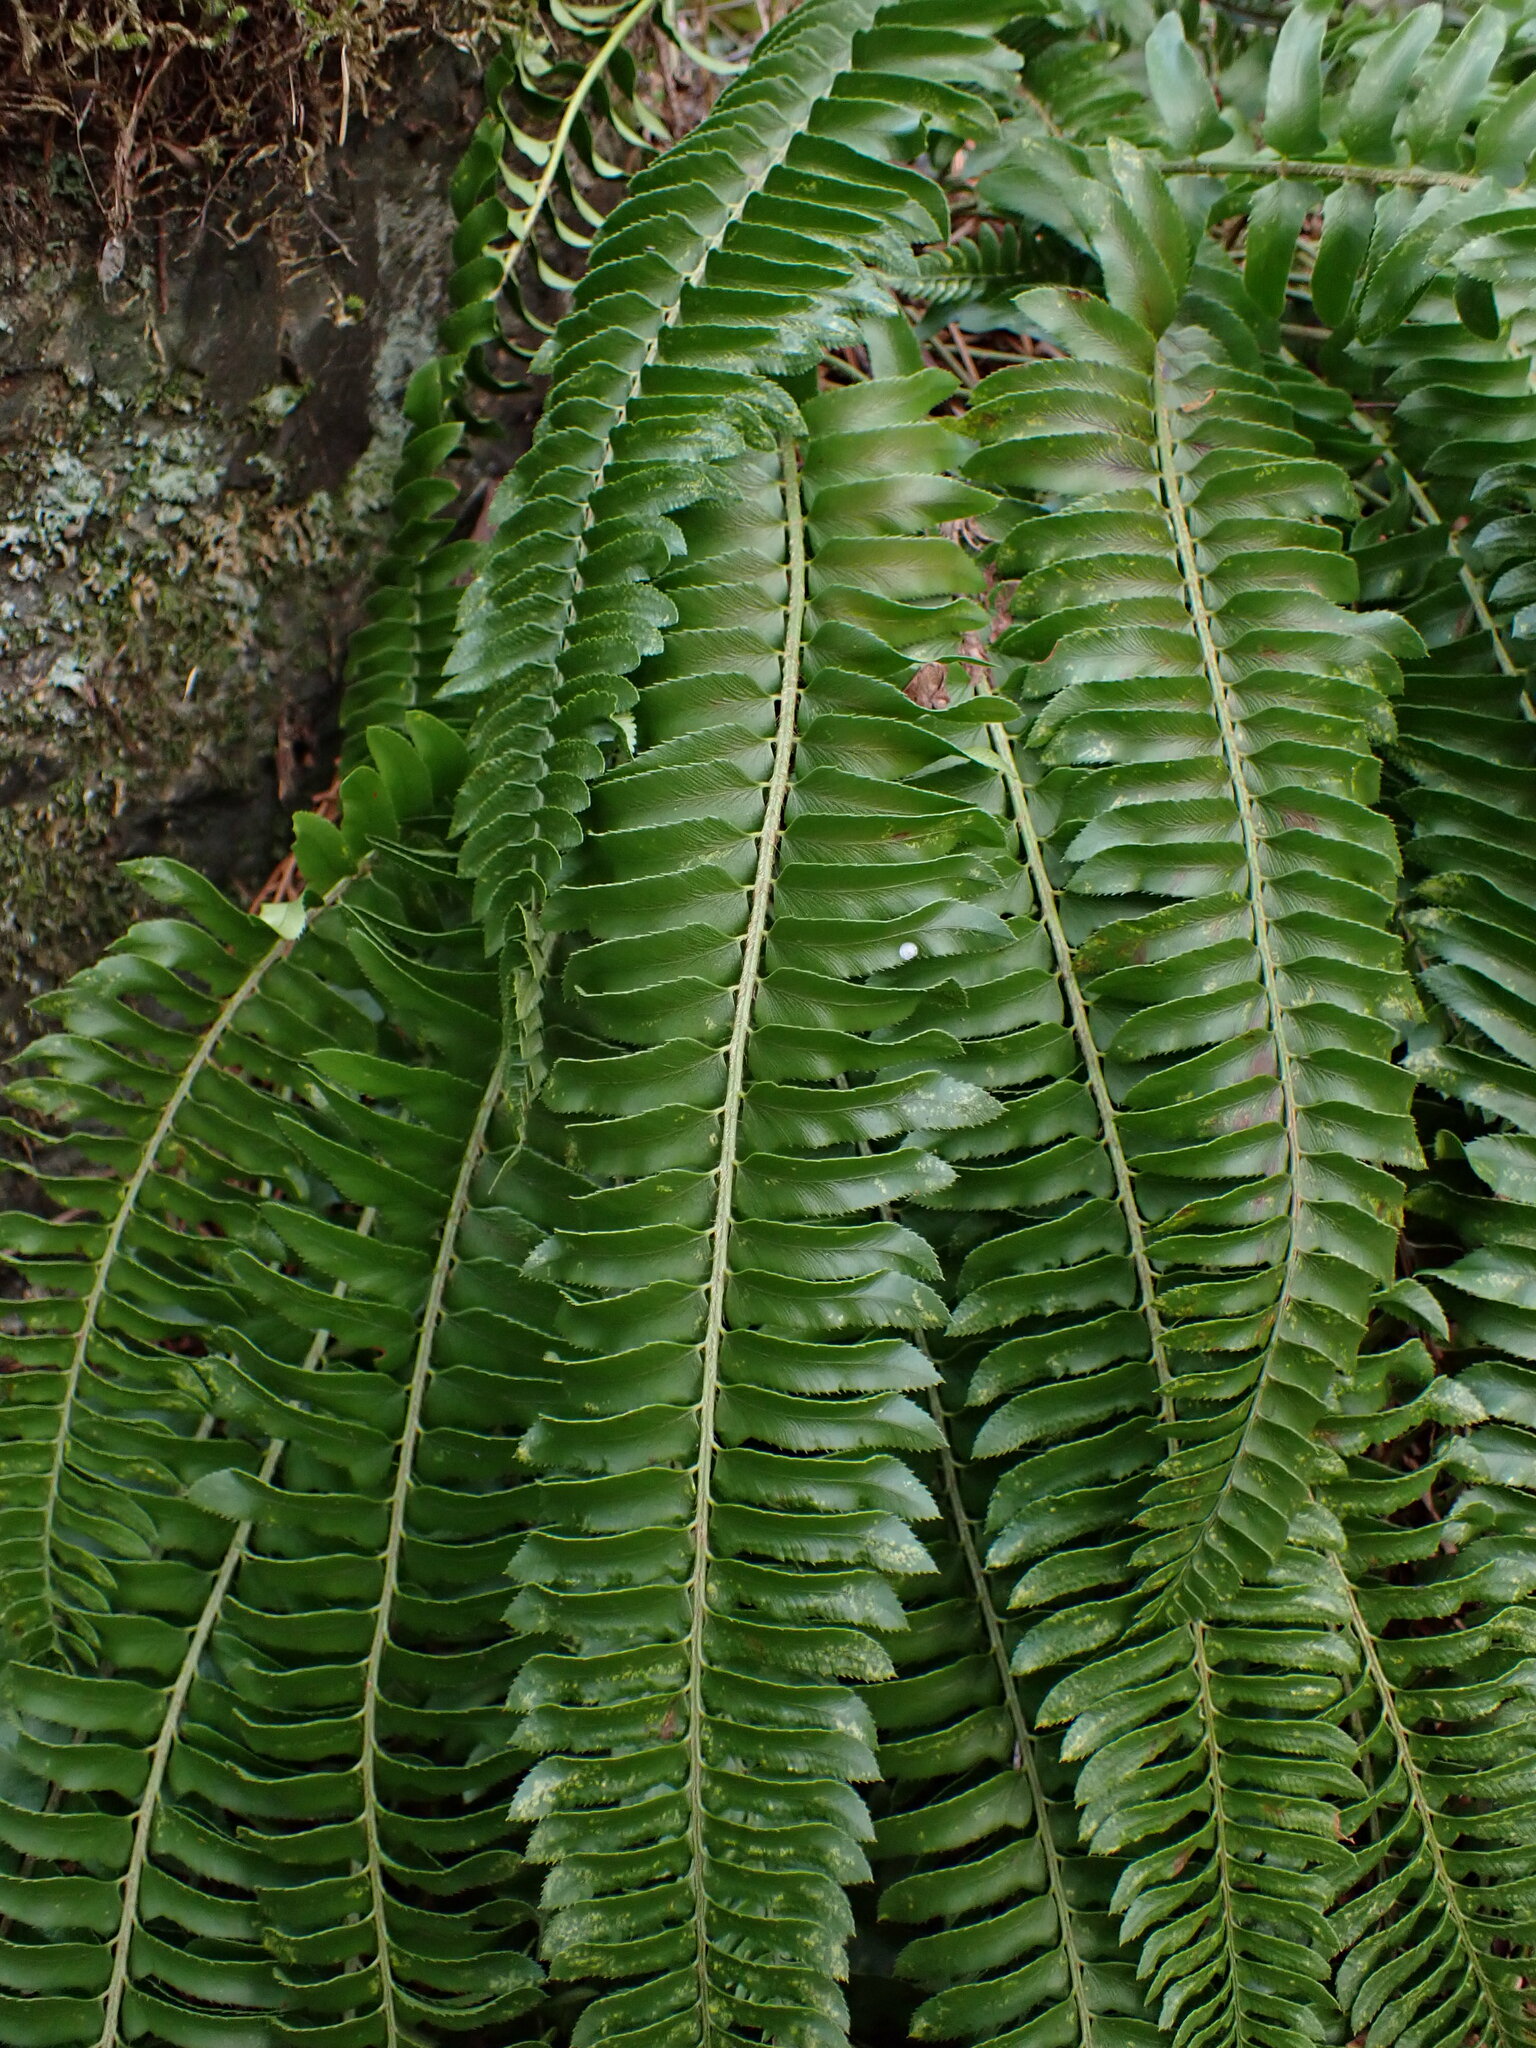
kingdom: Plantae
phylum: Tracheophyta
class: Polypodiopsida
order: Polypodiales
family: Dryopteridaceae
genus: Polystichum
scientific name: Polystichum imbricans
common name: Dwarf western sword fern
